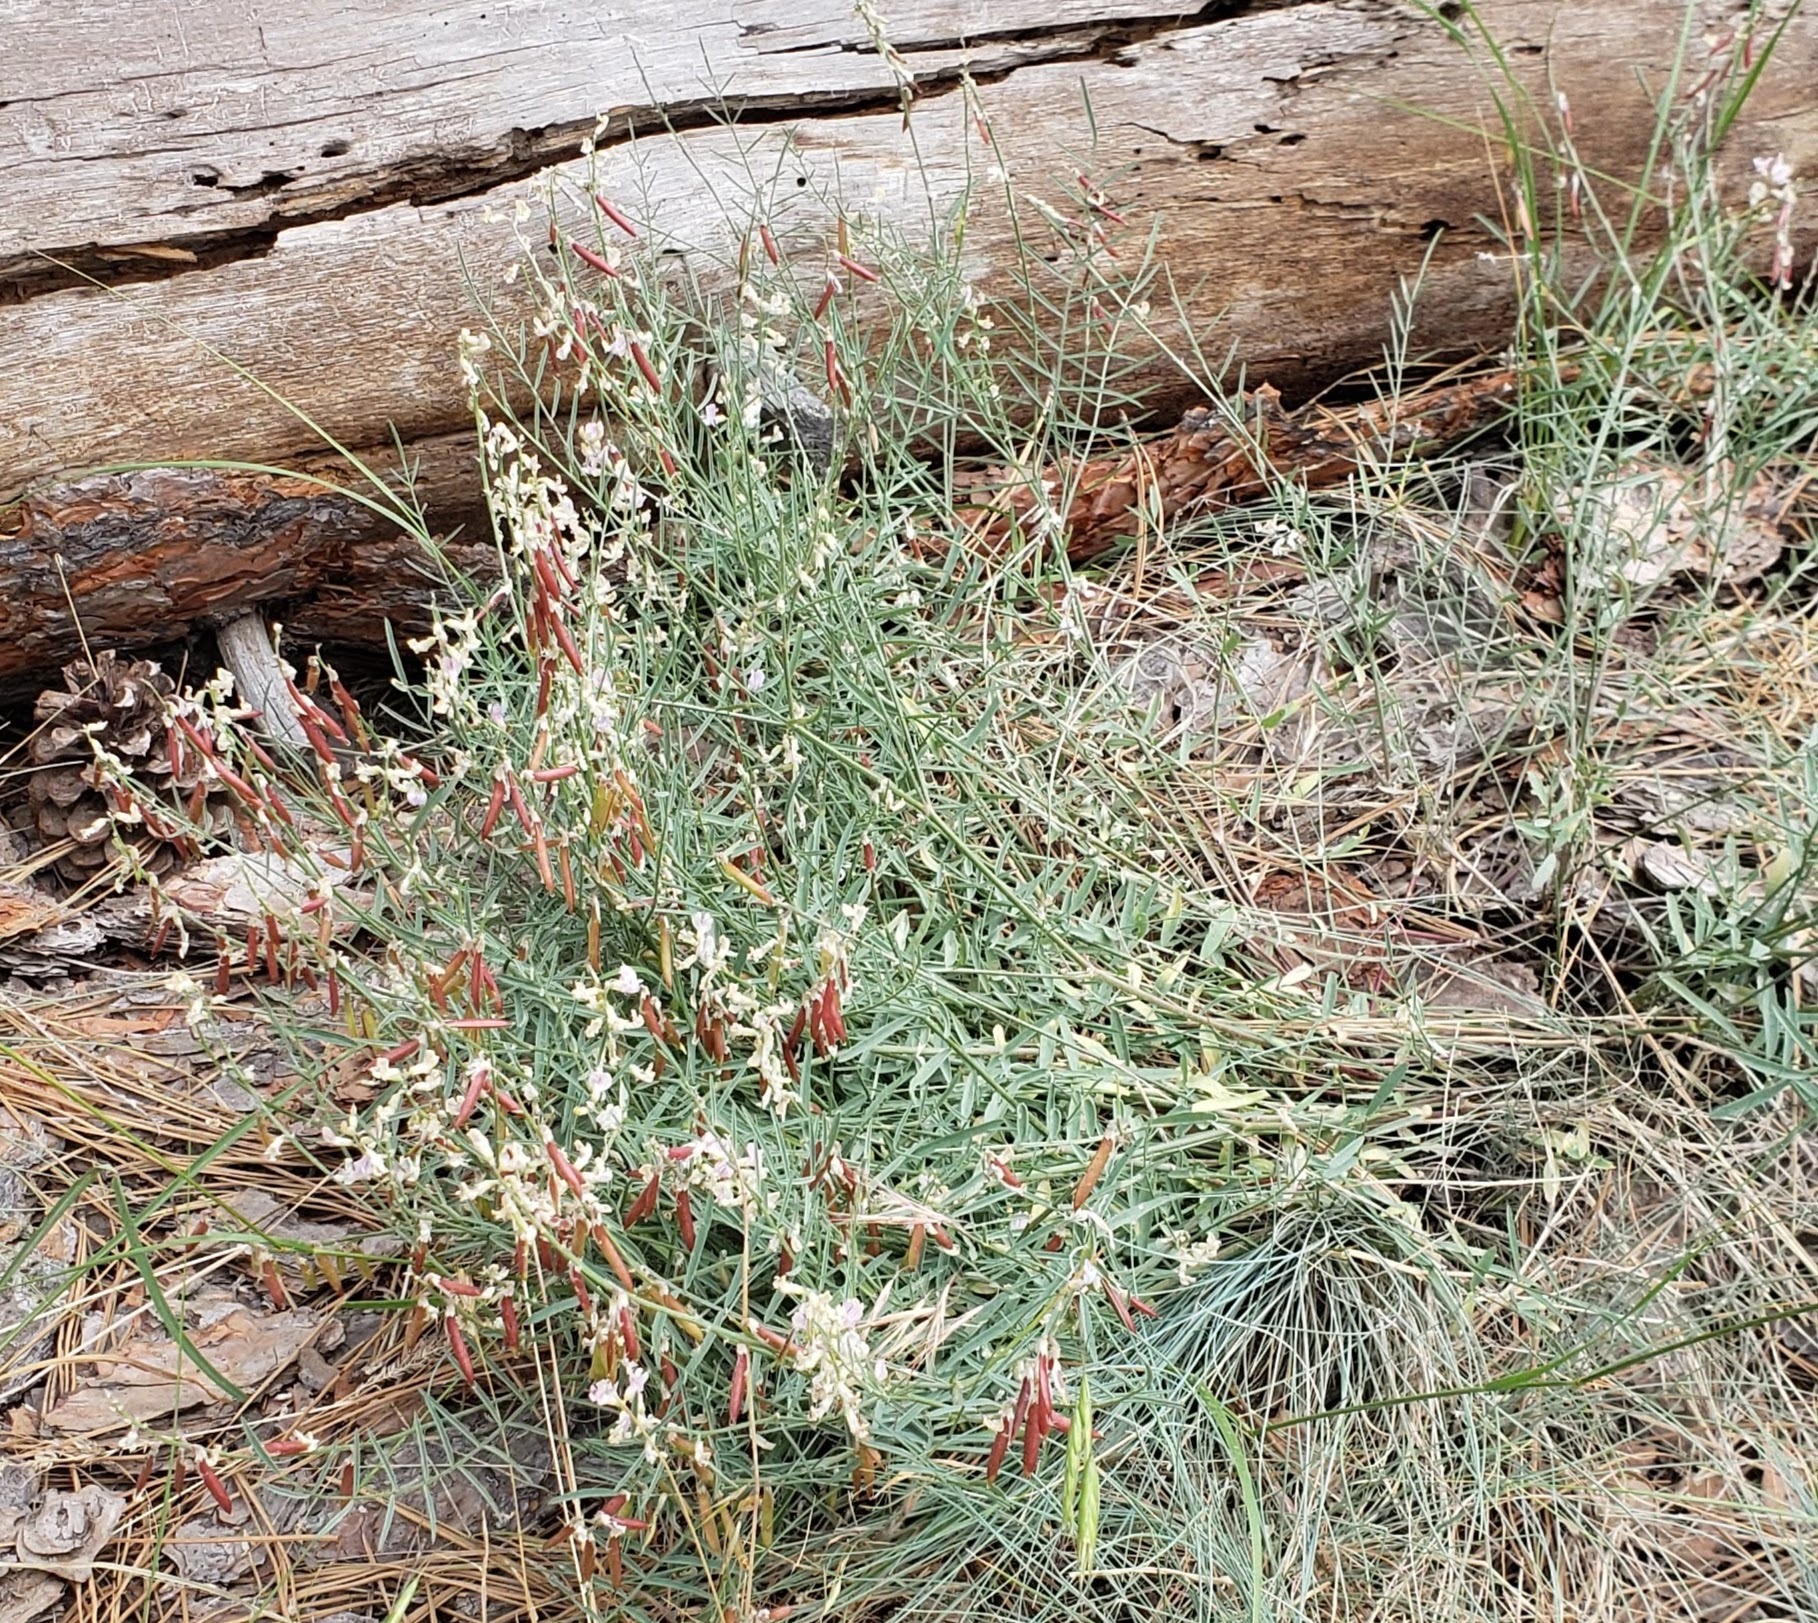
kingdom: Plantae
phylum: Tracheophyta
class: Magnoliopsida
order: Fabales
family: Fabaceae
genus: Astragalus
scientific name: Astragalus miser
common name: Timber milkvetch
